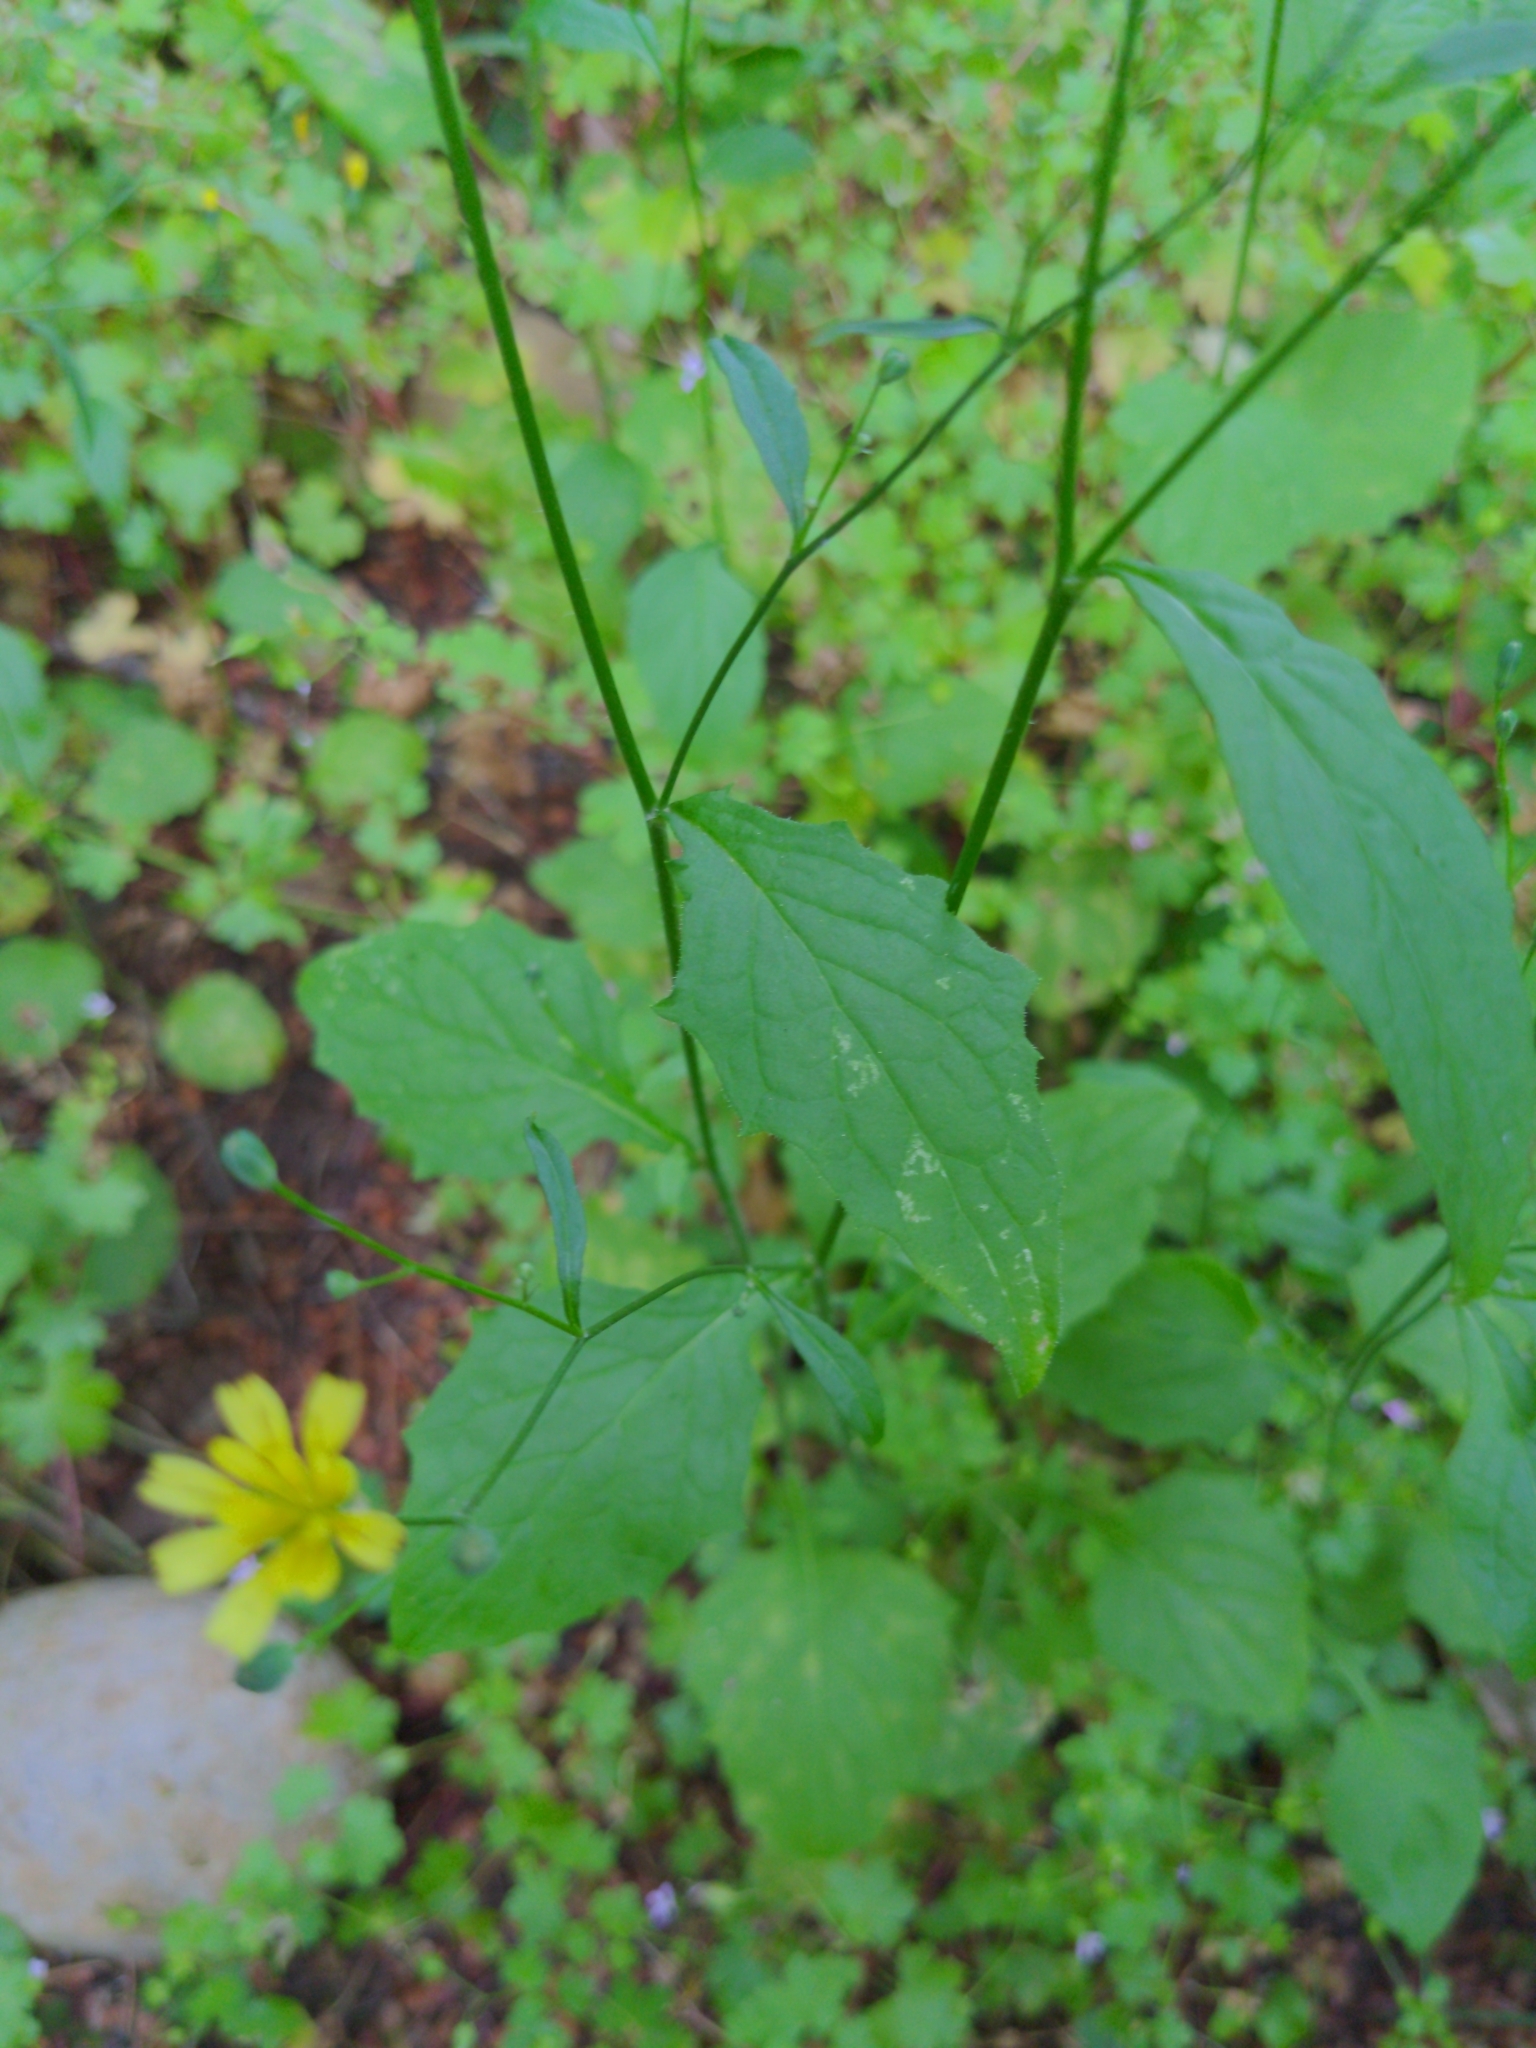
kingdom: Plantae
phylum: Tracheophyta
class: Magnoliopsida
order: Asterales
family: Asteraceae
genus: Lapsana
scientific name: Lapsana communis
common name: Nipplewort
